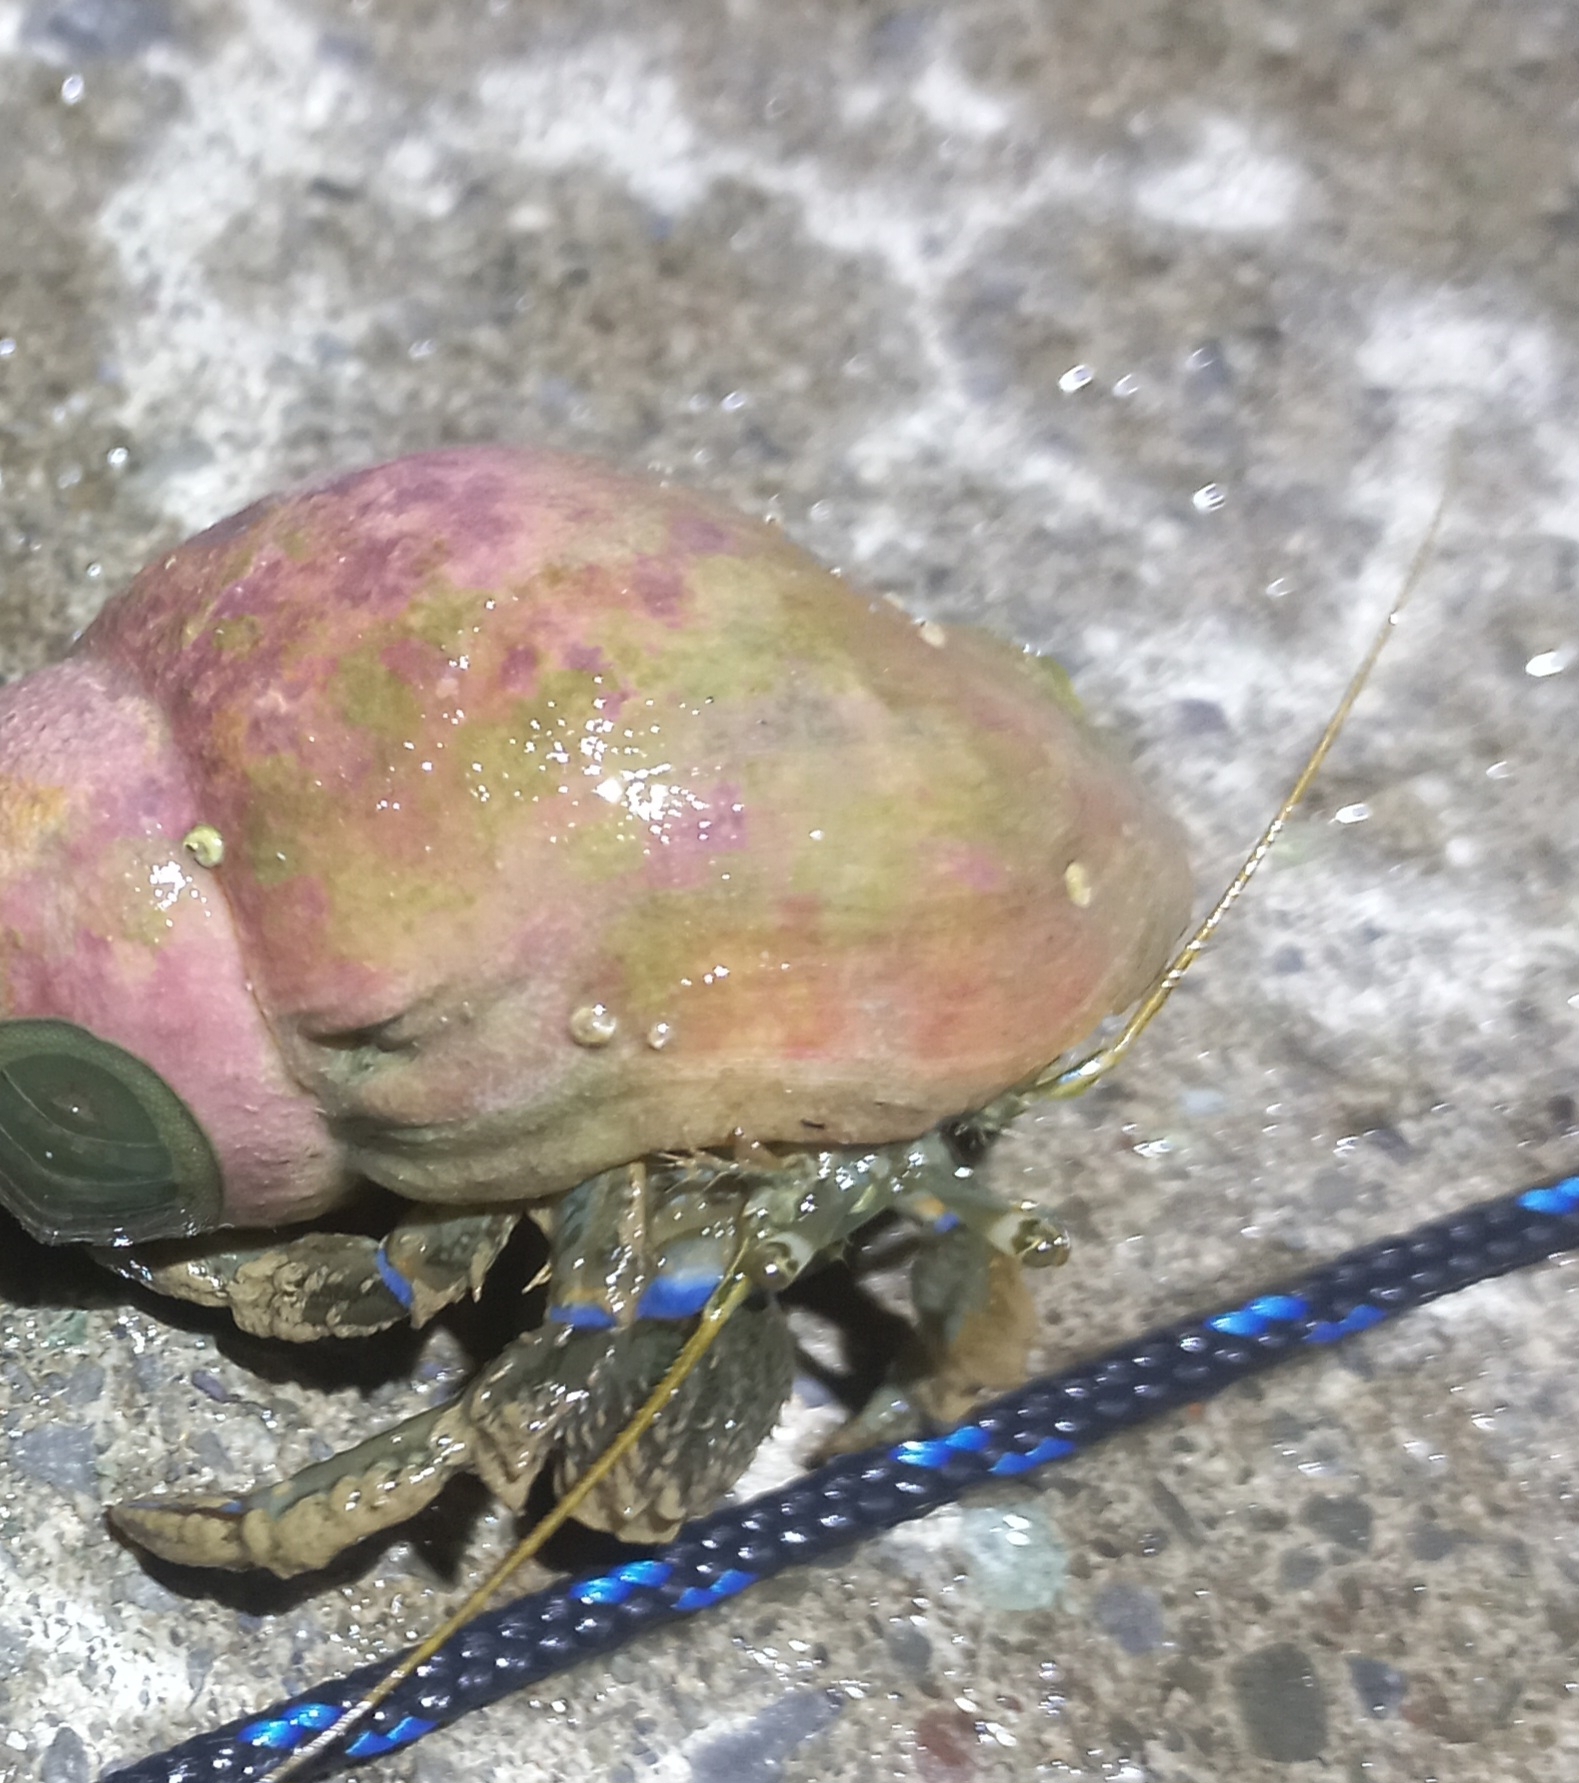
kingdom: Animalia
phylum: Arthropoda
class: Malacostraca
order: Decapoda
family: Paguridae
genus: Pagurus
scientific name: Pagurus novizealandiae
